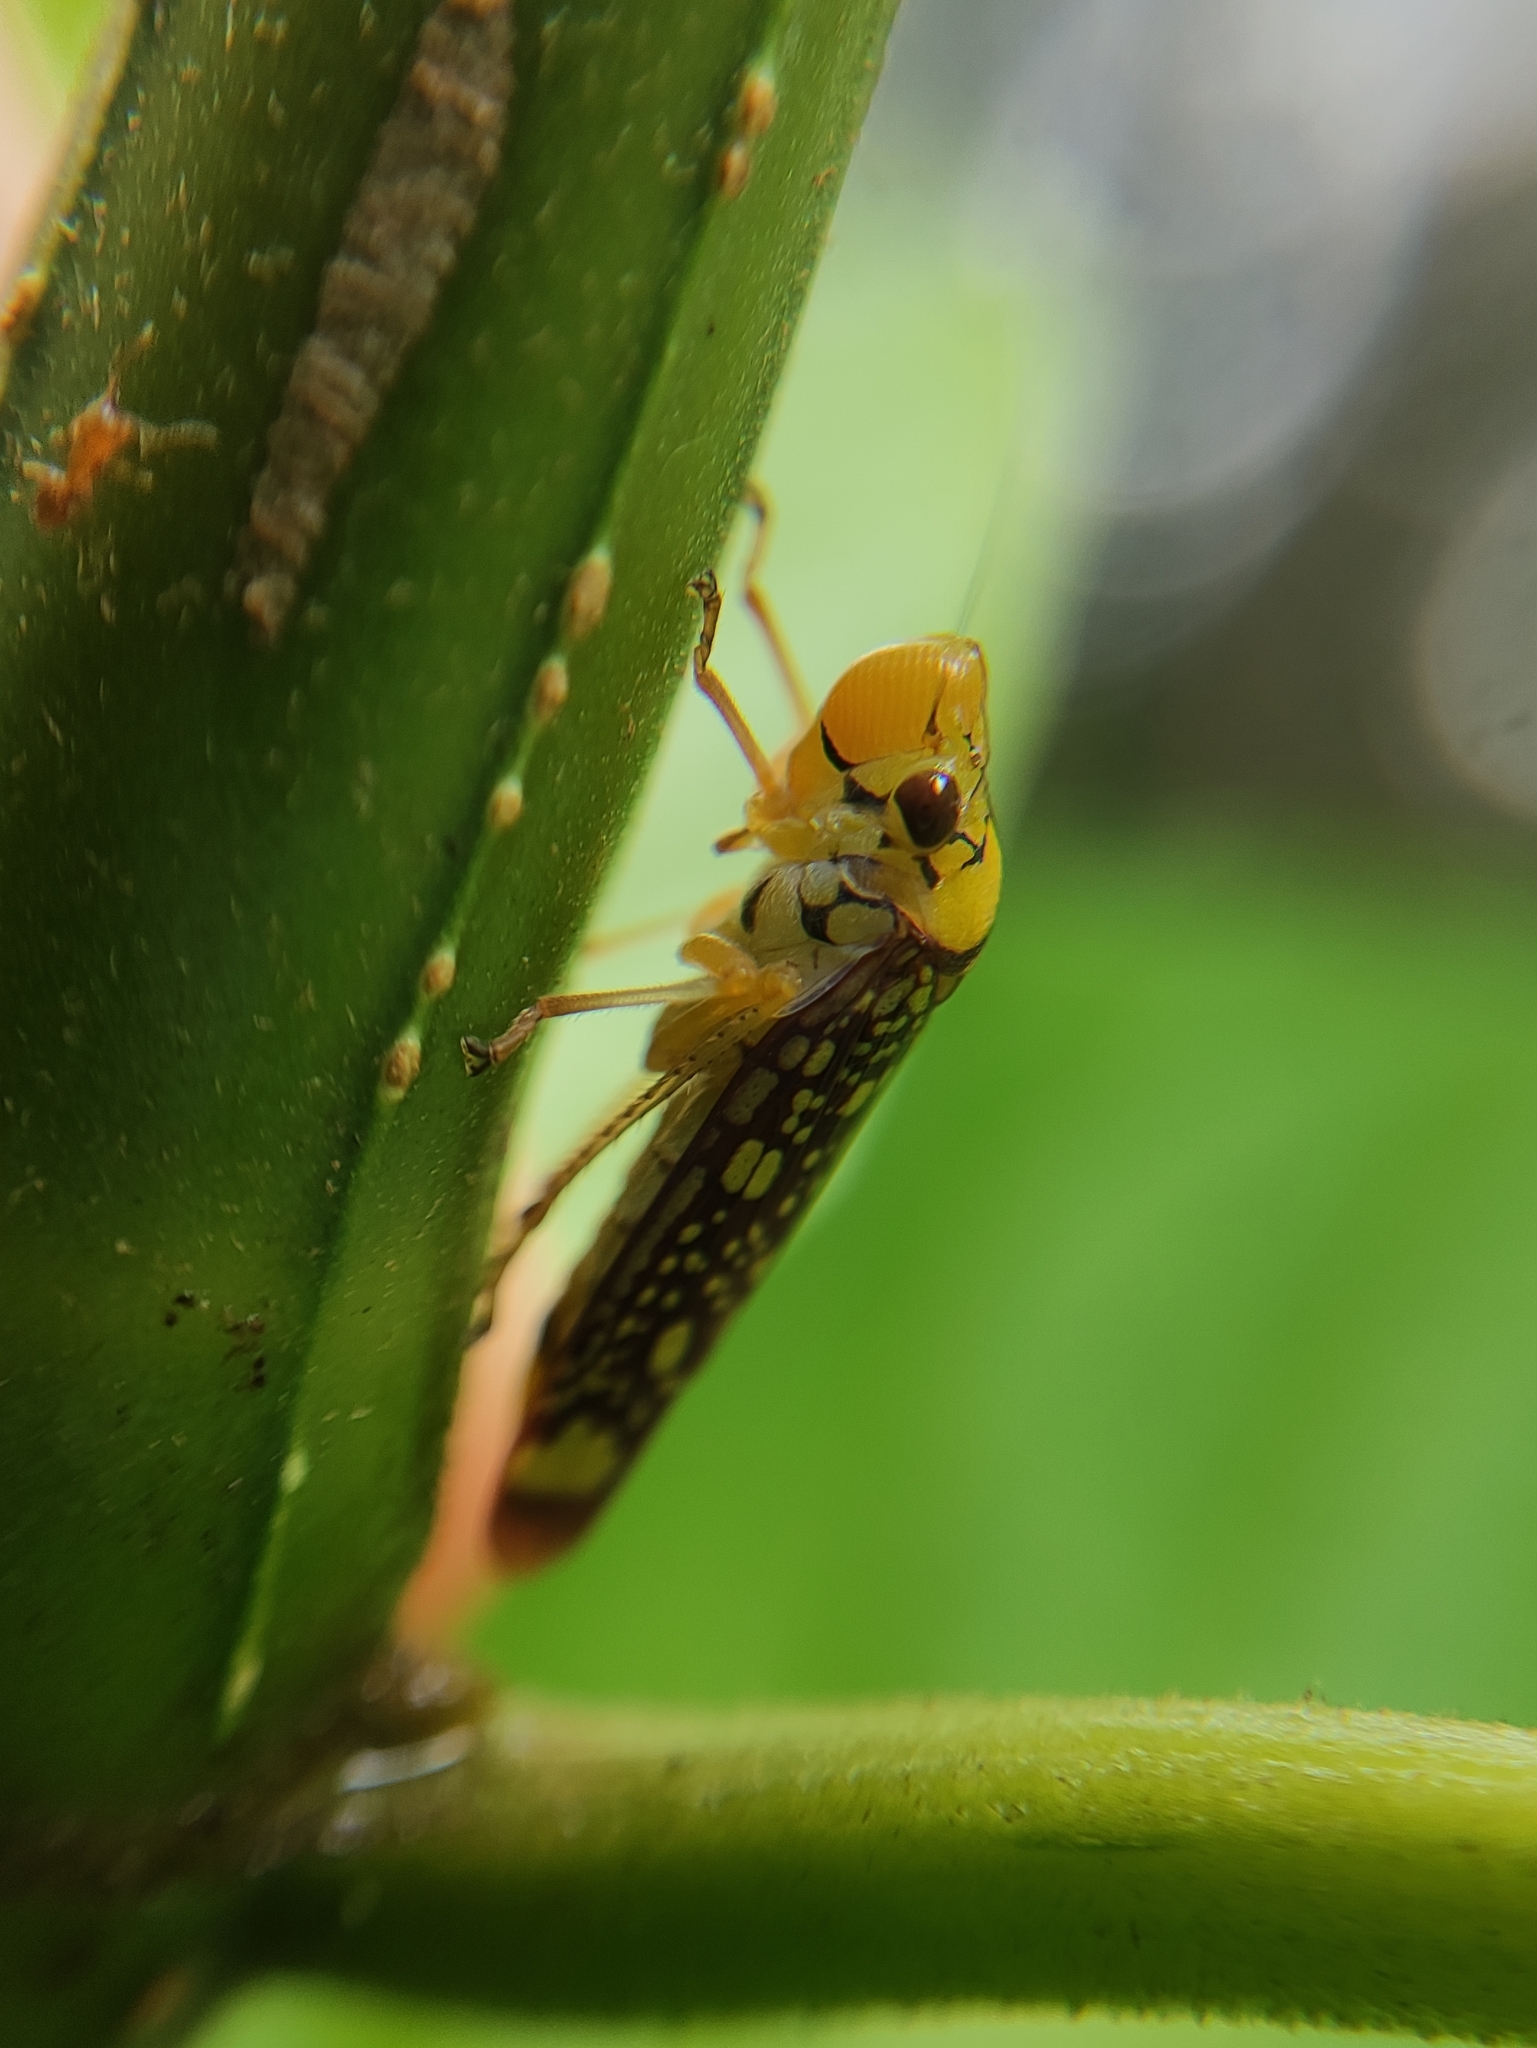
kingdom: Animalia
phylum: Arthropoda
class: Insecta
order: Hemiptera
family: Cicadellidae
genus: Aulacizes
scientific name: Aulacizes conspersa
